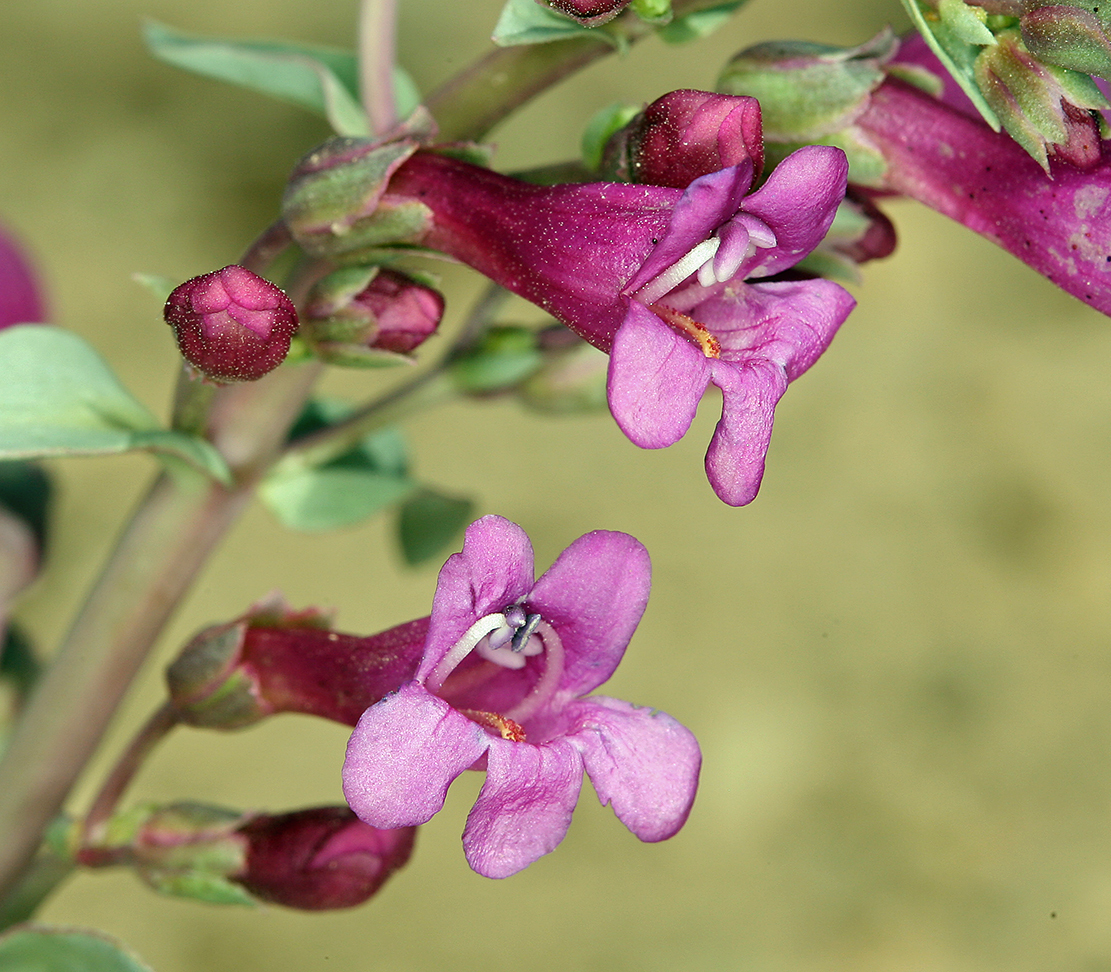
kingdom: Plantae
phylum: Tracheophyta
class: Magnoliopsida
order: Lamiales
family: Plantaginaceae
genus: Penstemon
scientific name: Penstemon patens
